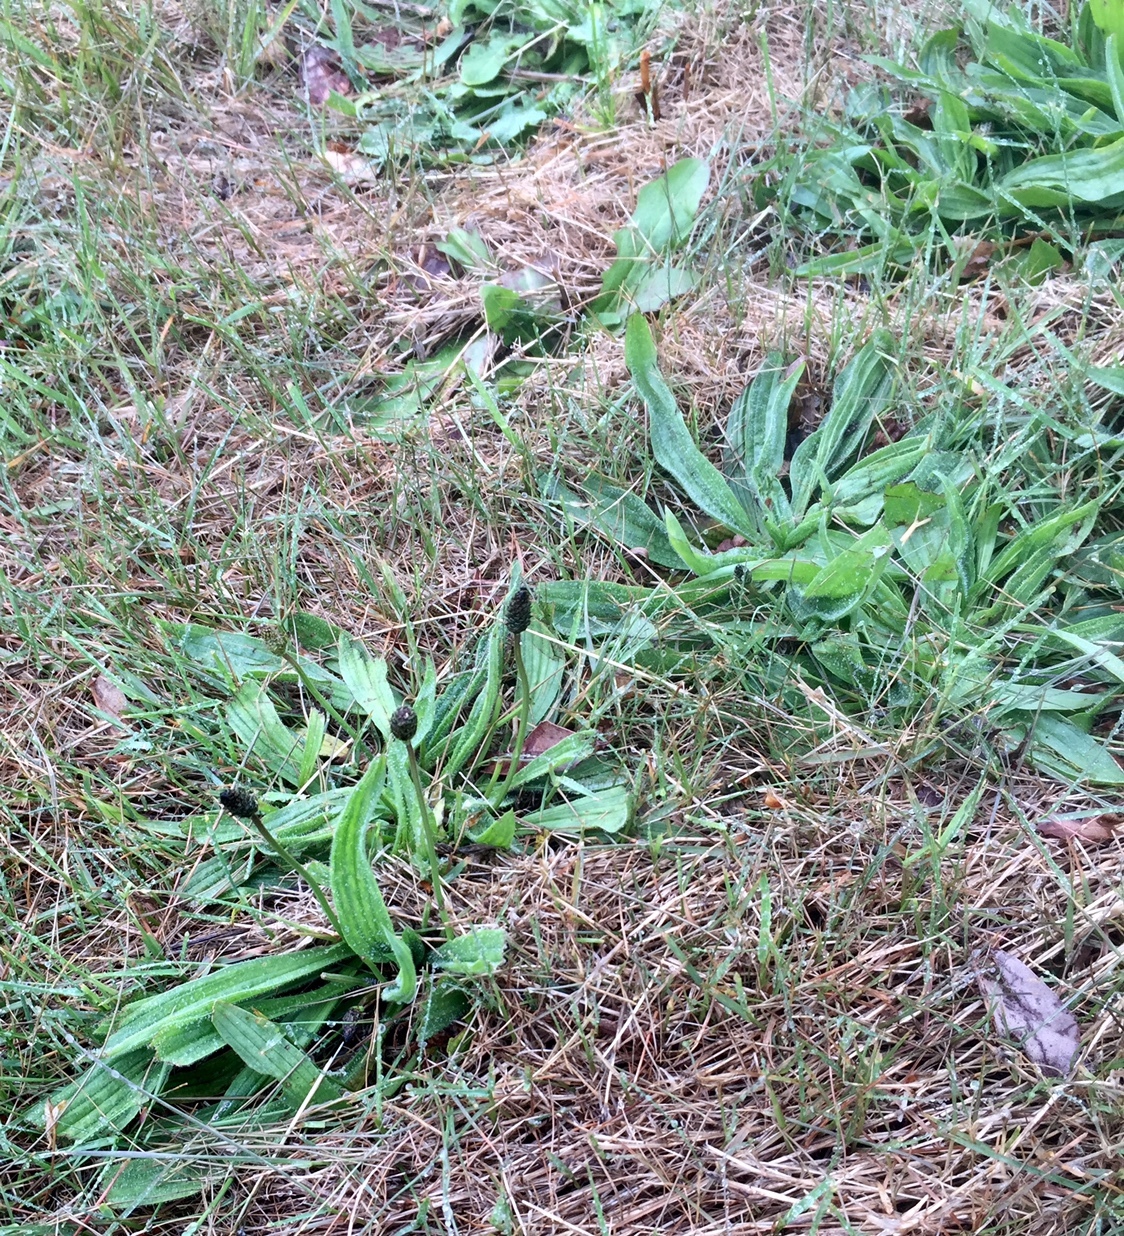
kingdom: Plantae
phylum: Tracheophyta
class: Magnoliopsida
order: Lamiales
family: Plantaginaceae
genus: Plantago
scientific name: Plantago lanceolata
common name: Ribwort plantain
